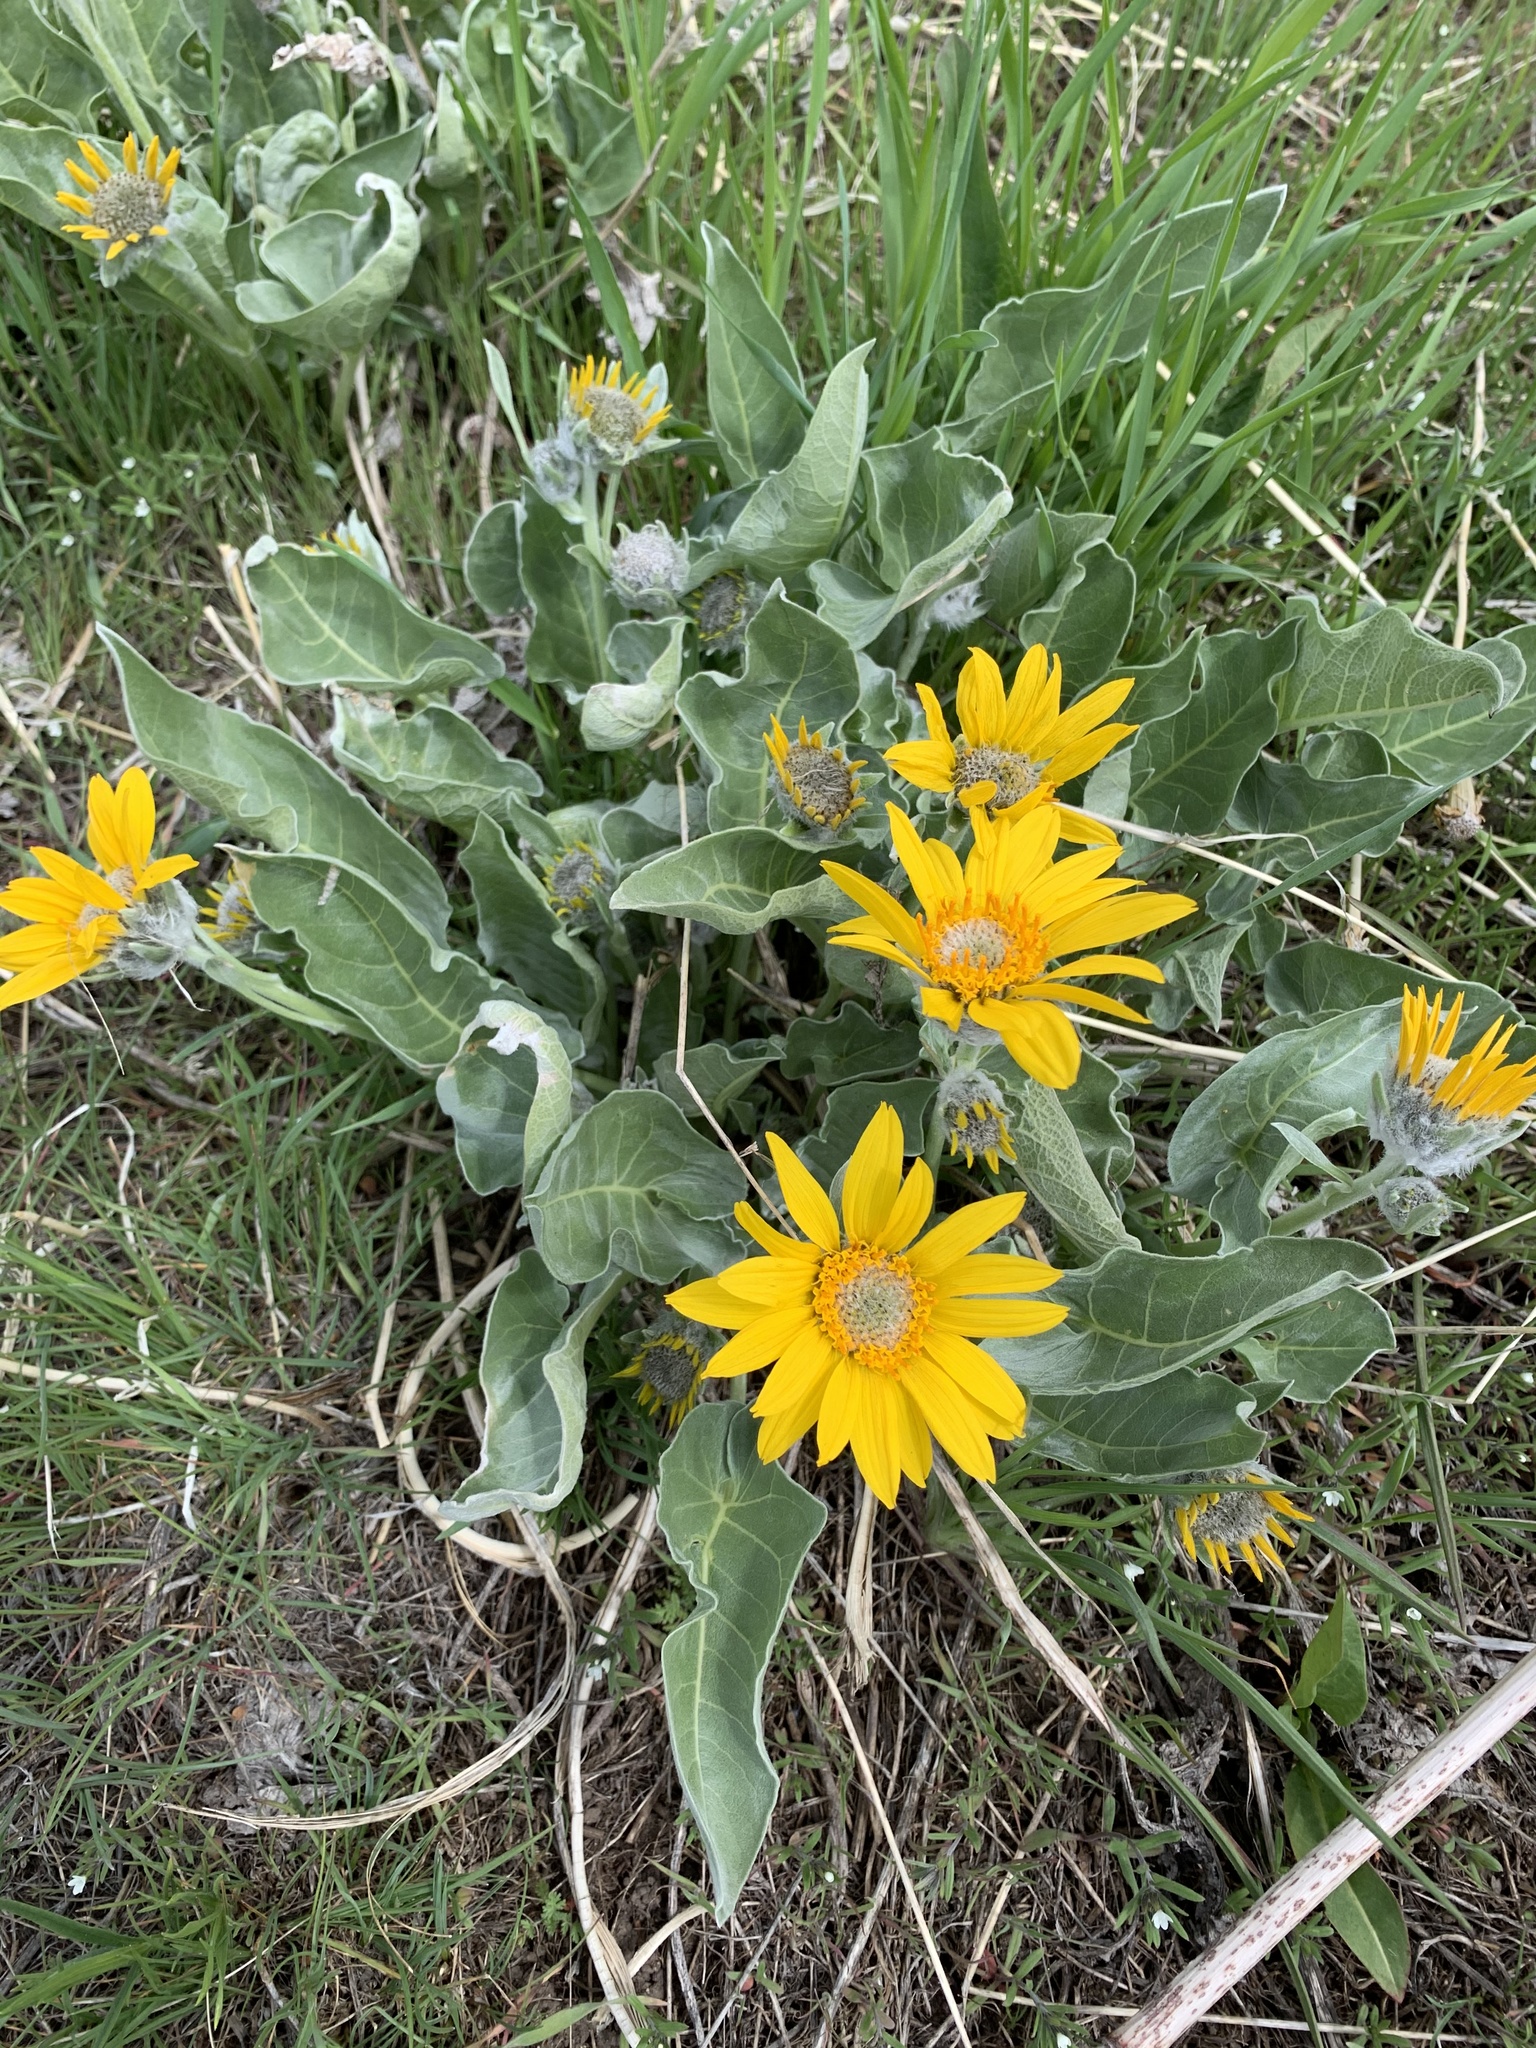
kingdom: Plantae
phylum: Tracheophyta
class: Magnoliopsida
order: Asterales
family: Asteraceae
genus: Wyethia
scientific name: Wyethia sagittata
